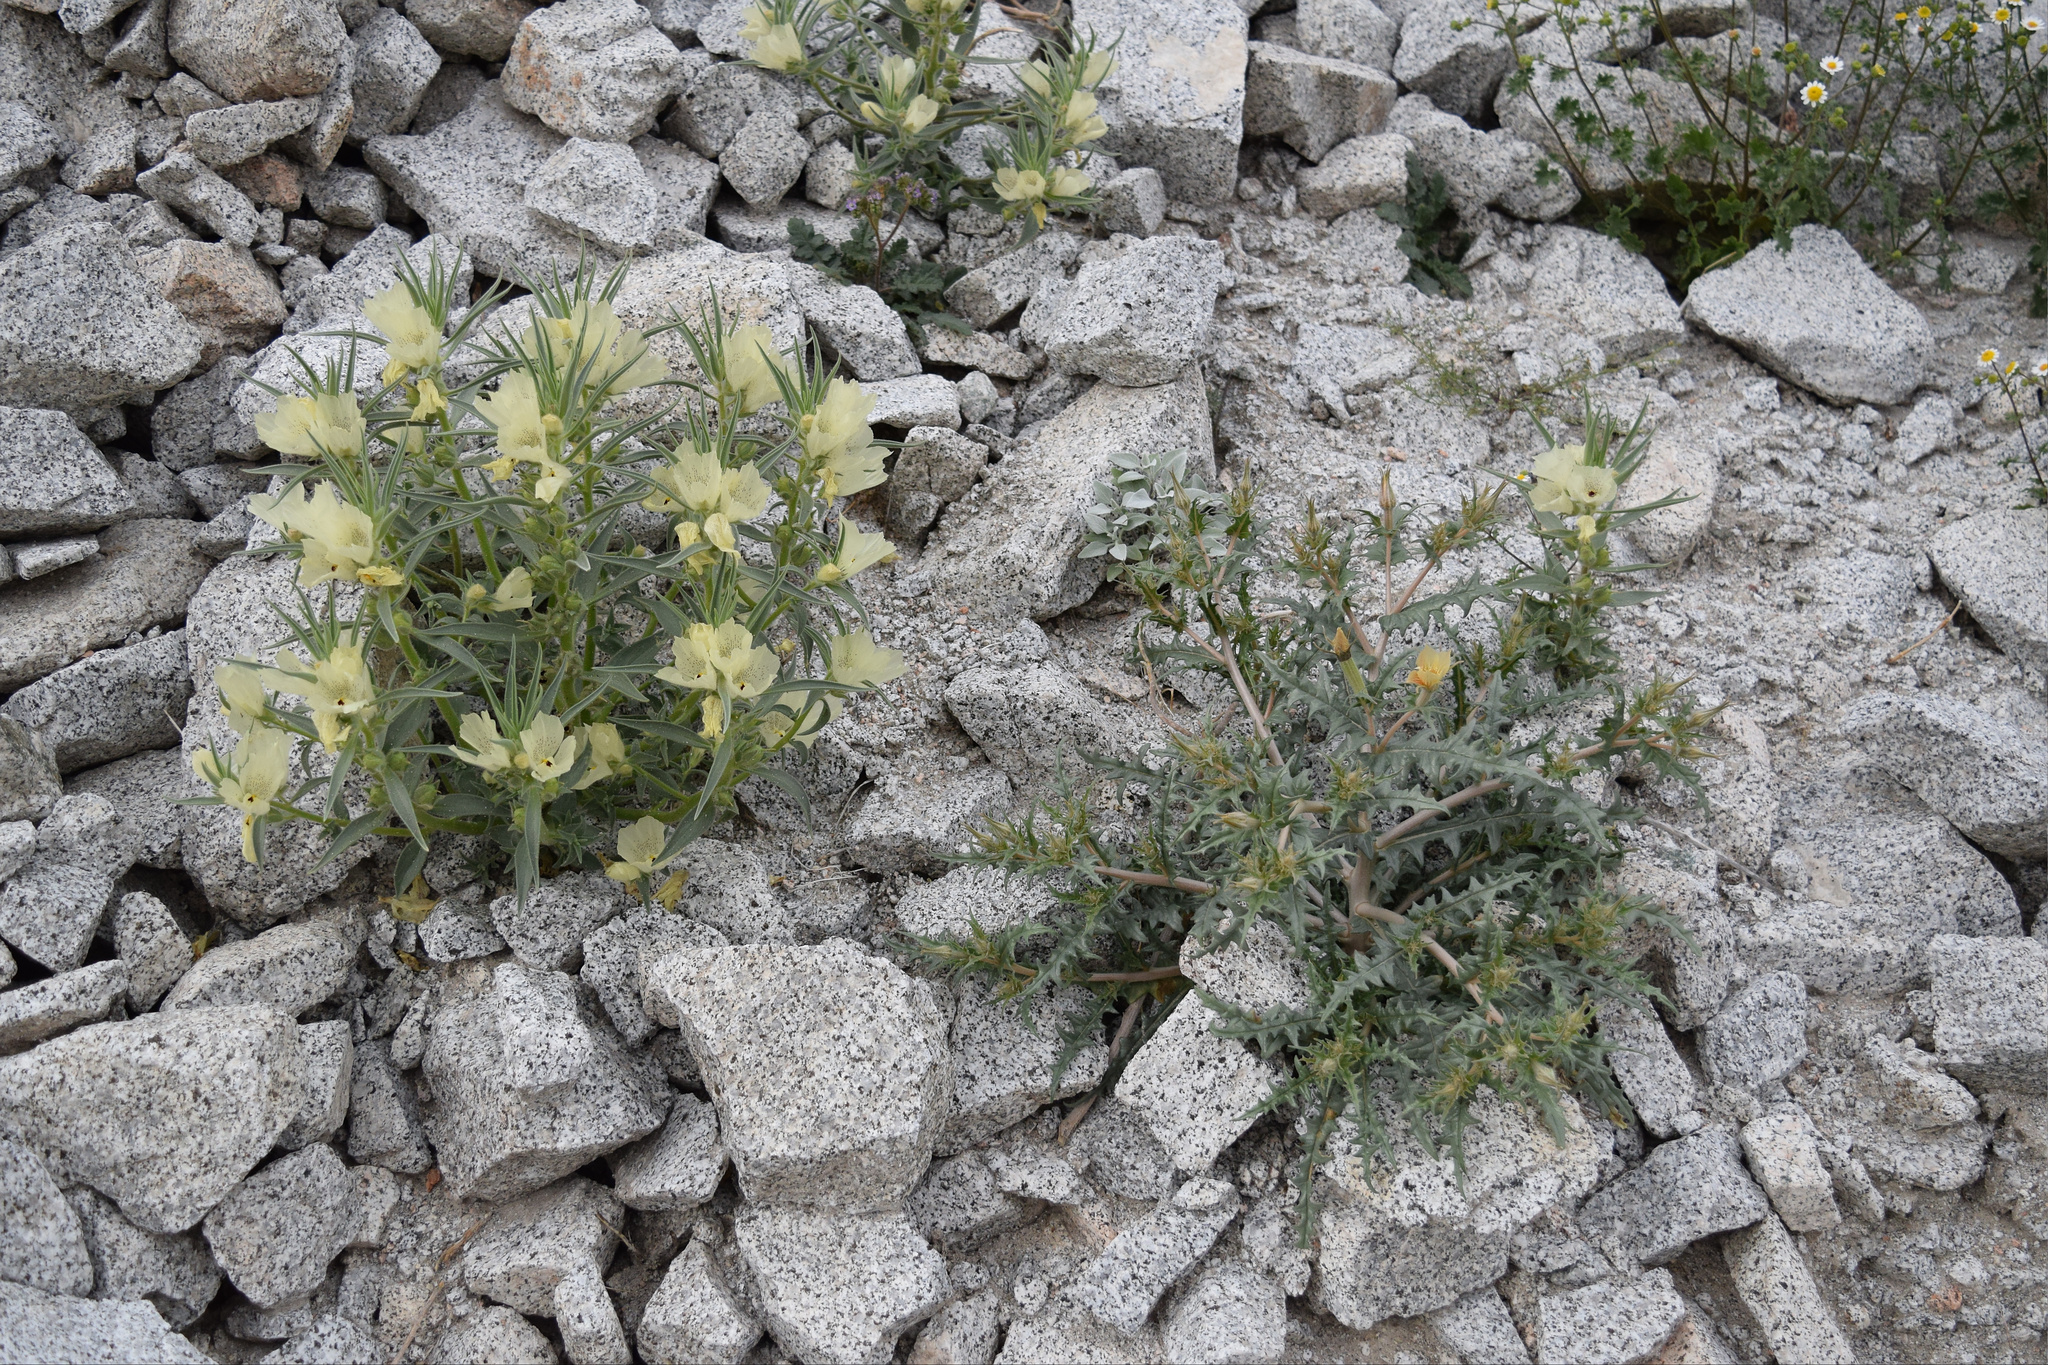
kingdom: Plantae
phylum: Tracheophyta
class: Magnoliopsida
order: Cornales
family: Loasaceae
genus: Mentzelia
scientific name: Mentzelia hirsutissima
